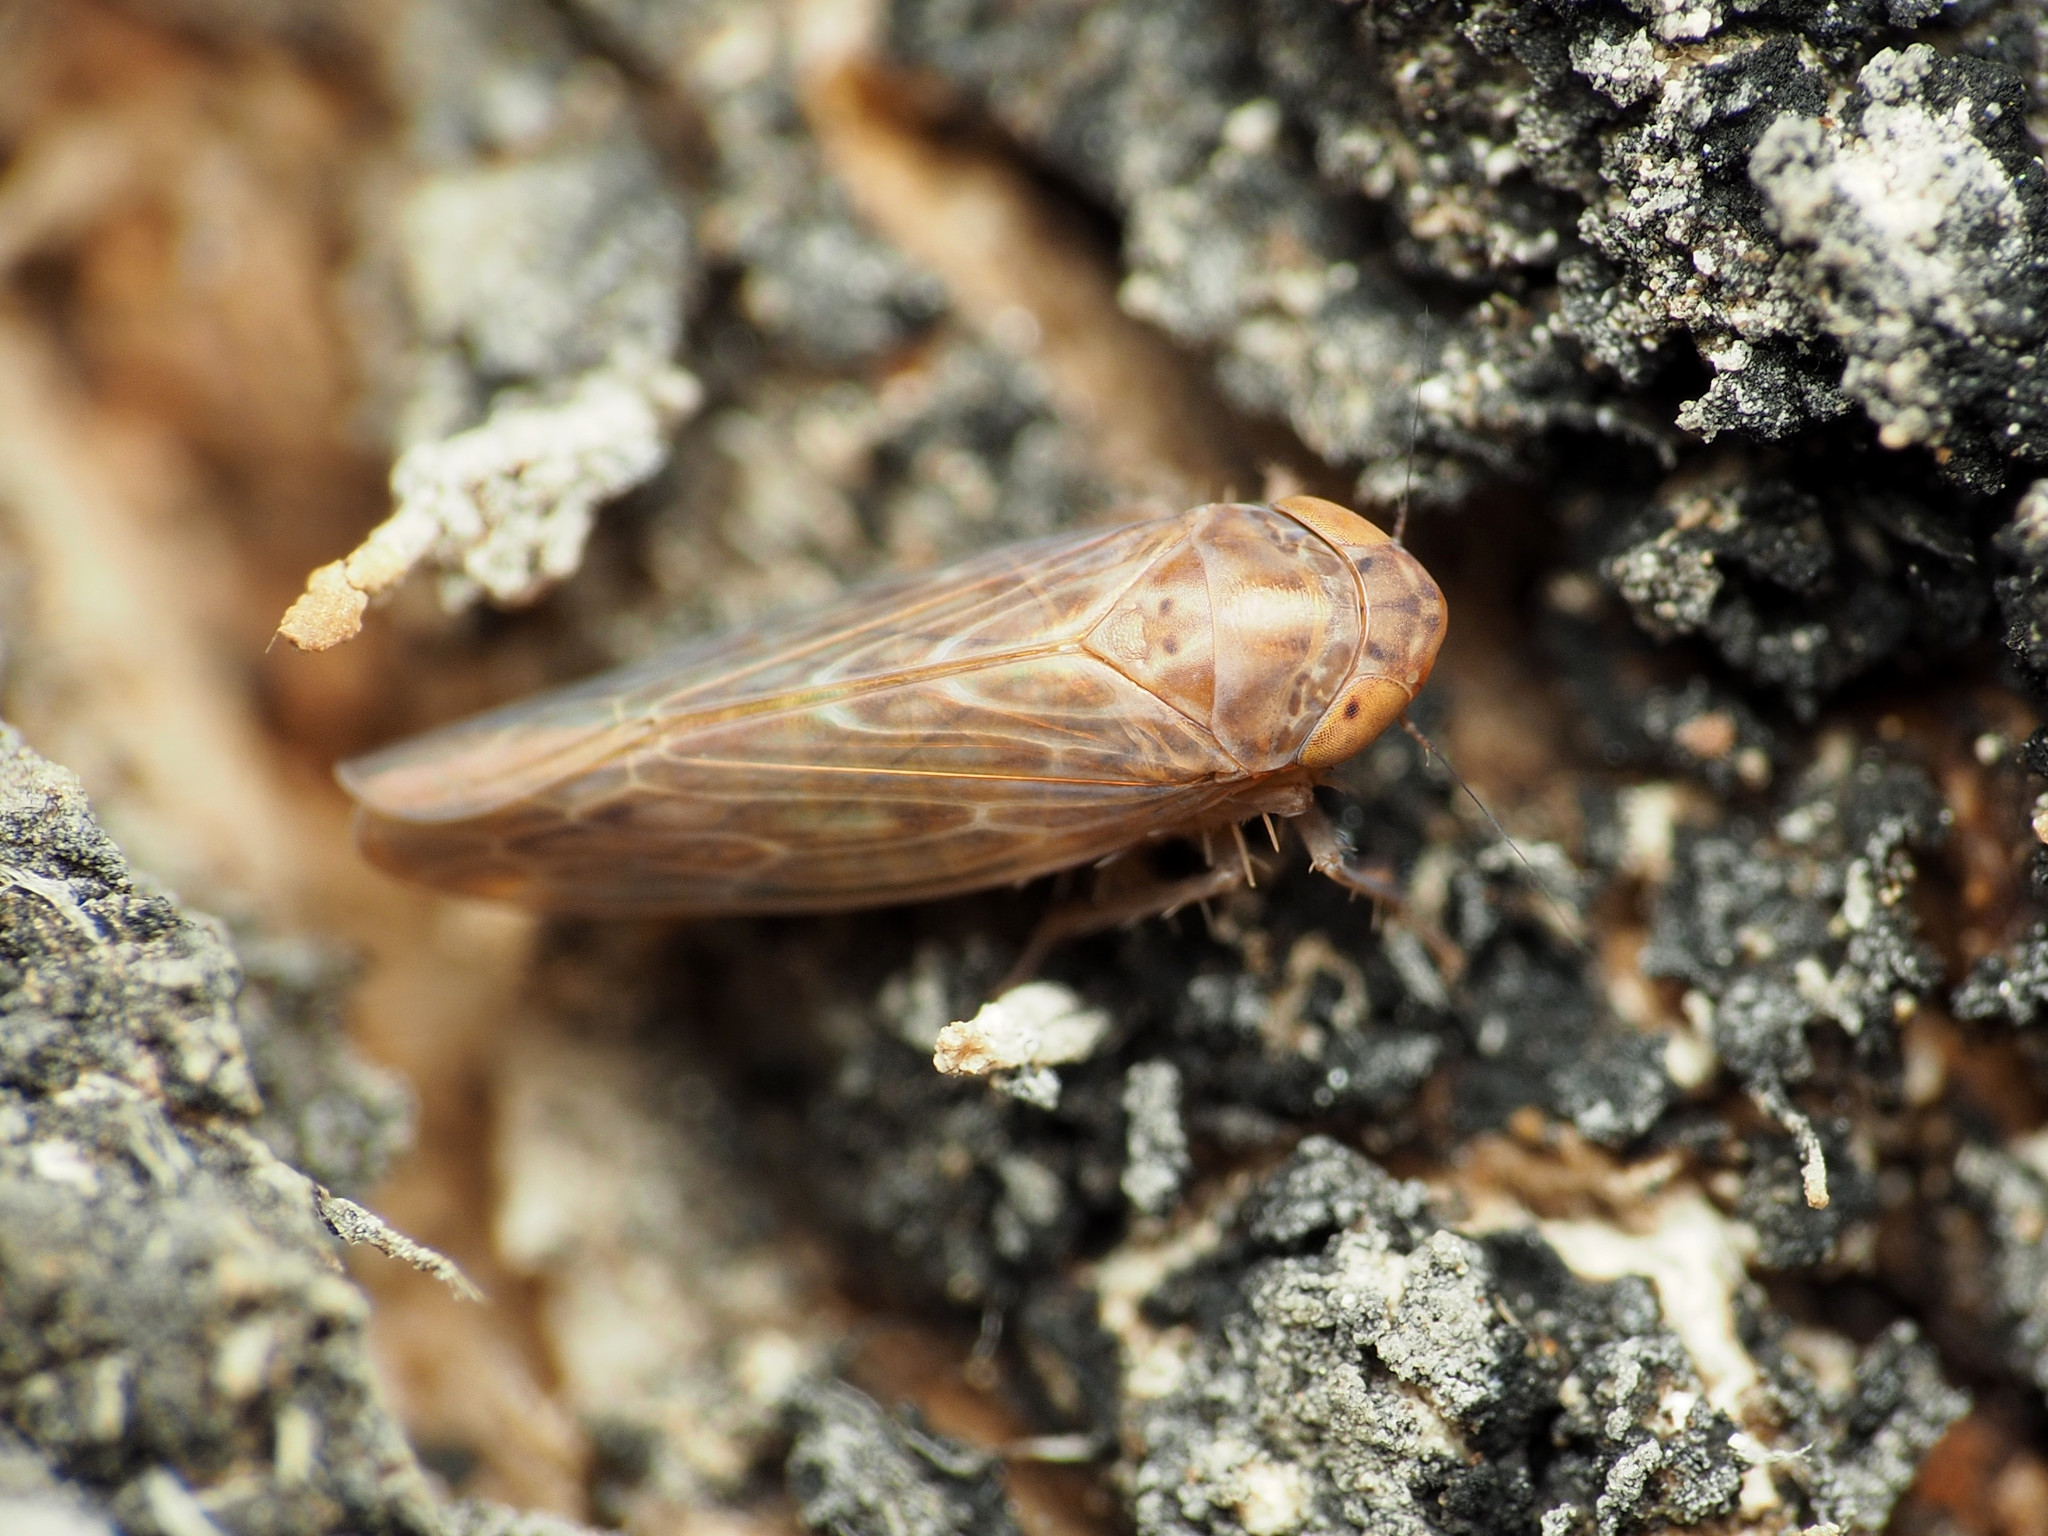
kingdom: Animalia
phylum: Arthropoda
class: Insecta
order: Hemiptera
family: Cicadellidae
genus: Doleranus
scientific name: Doleranus longulus
